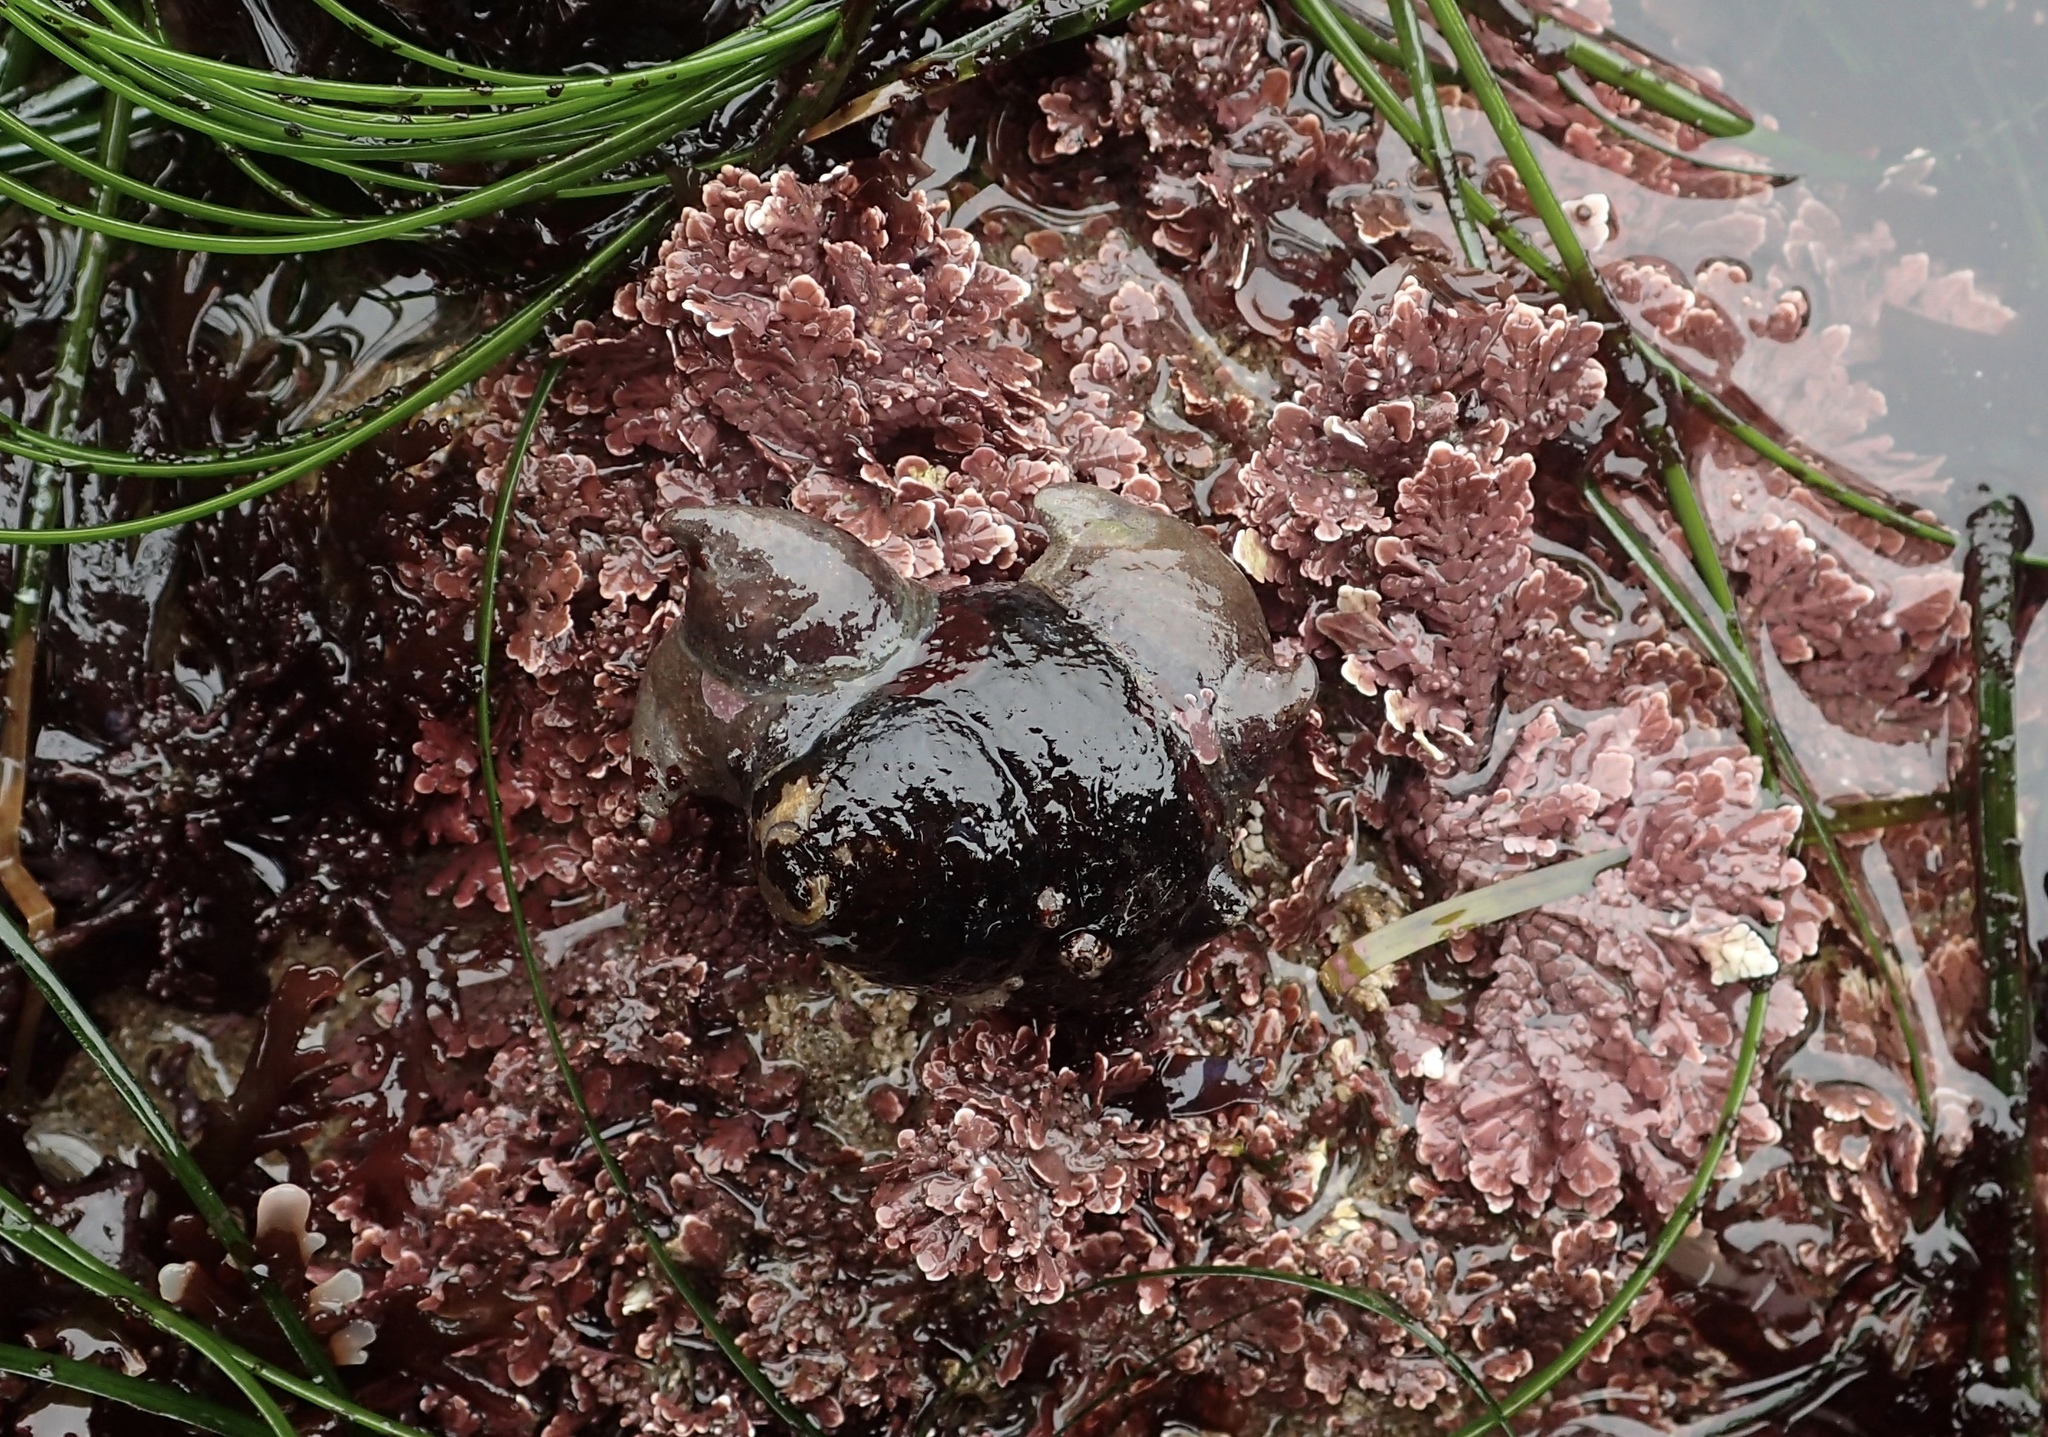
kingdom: Animalia
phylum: Mollusca
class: Gastropoda
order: Trochida
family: Tegulidae
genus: Tegula
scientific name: Tegula funebralis
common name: Black tegula
